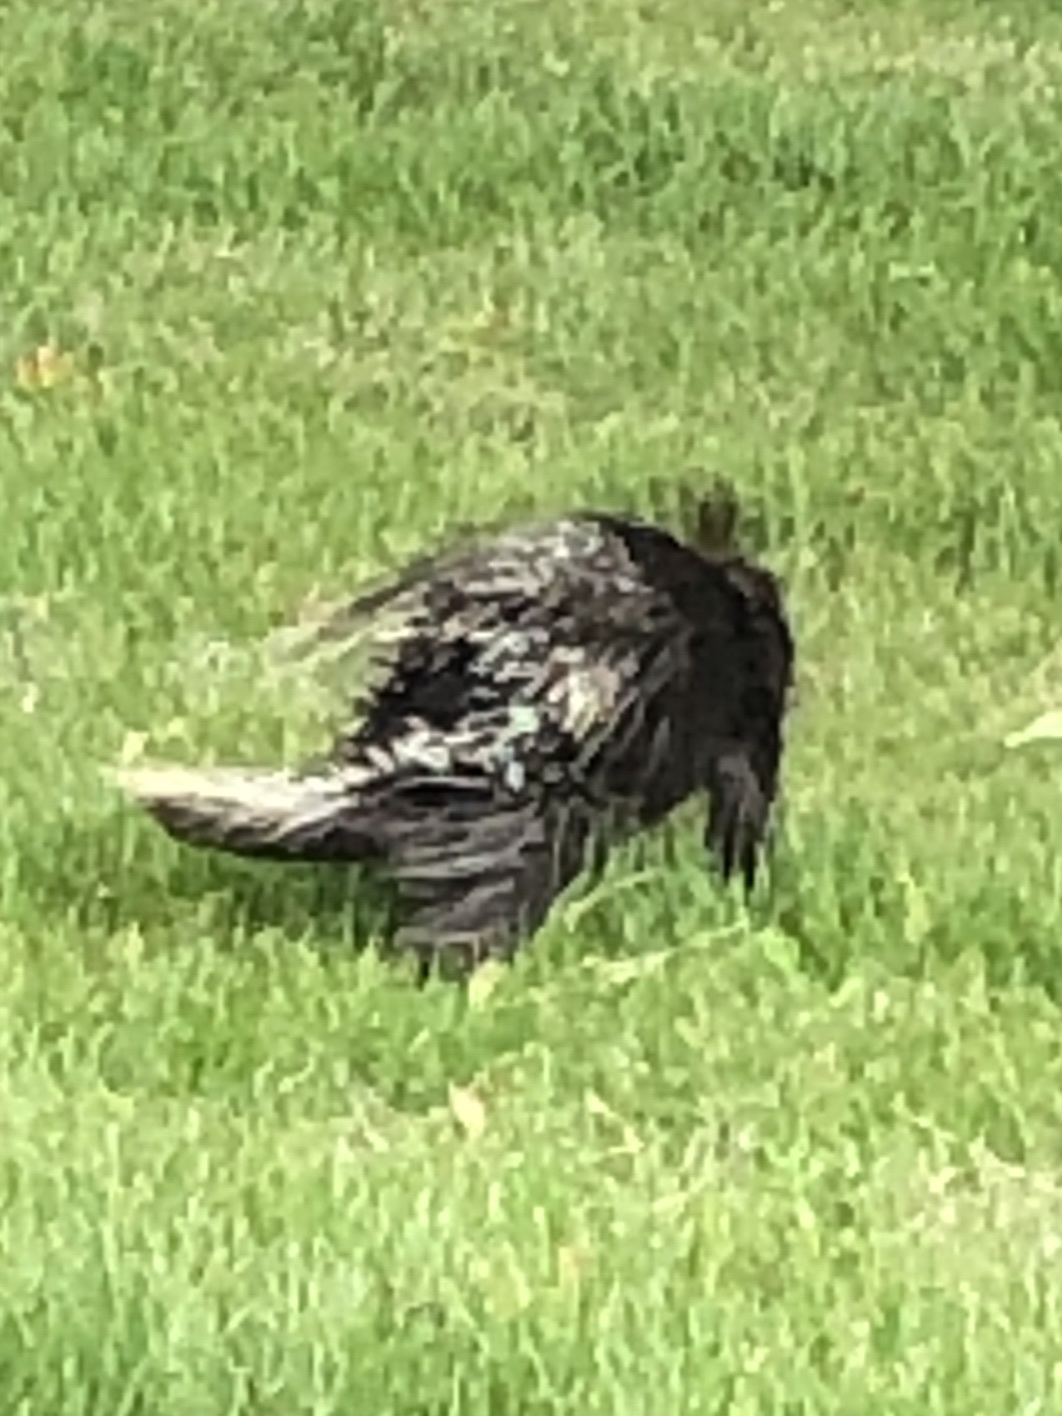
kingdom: Animalia
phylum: Chordata
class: Mammalia
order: Rodentia
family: Erethizontidae
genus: Erethizon
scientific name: Erethizon dorsatus
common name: North american porcupine
